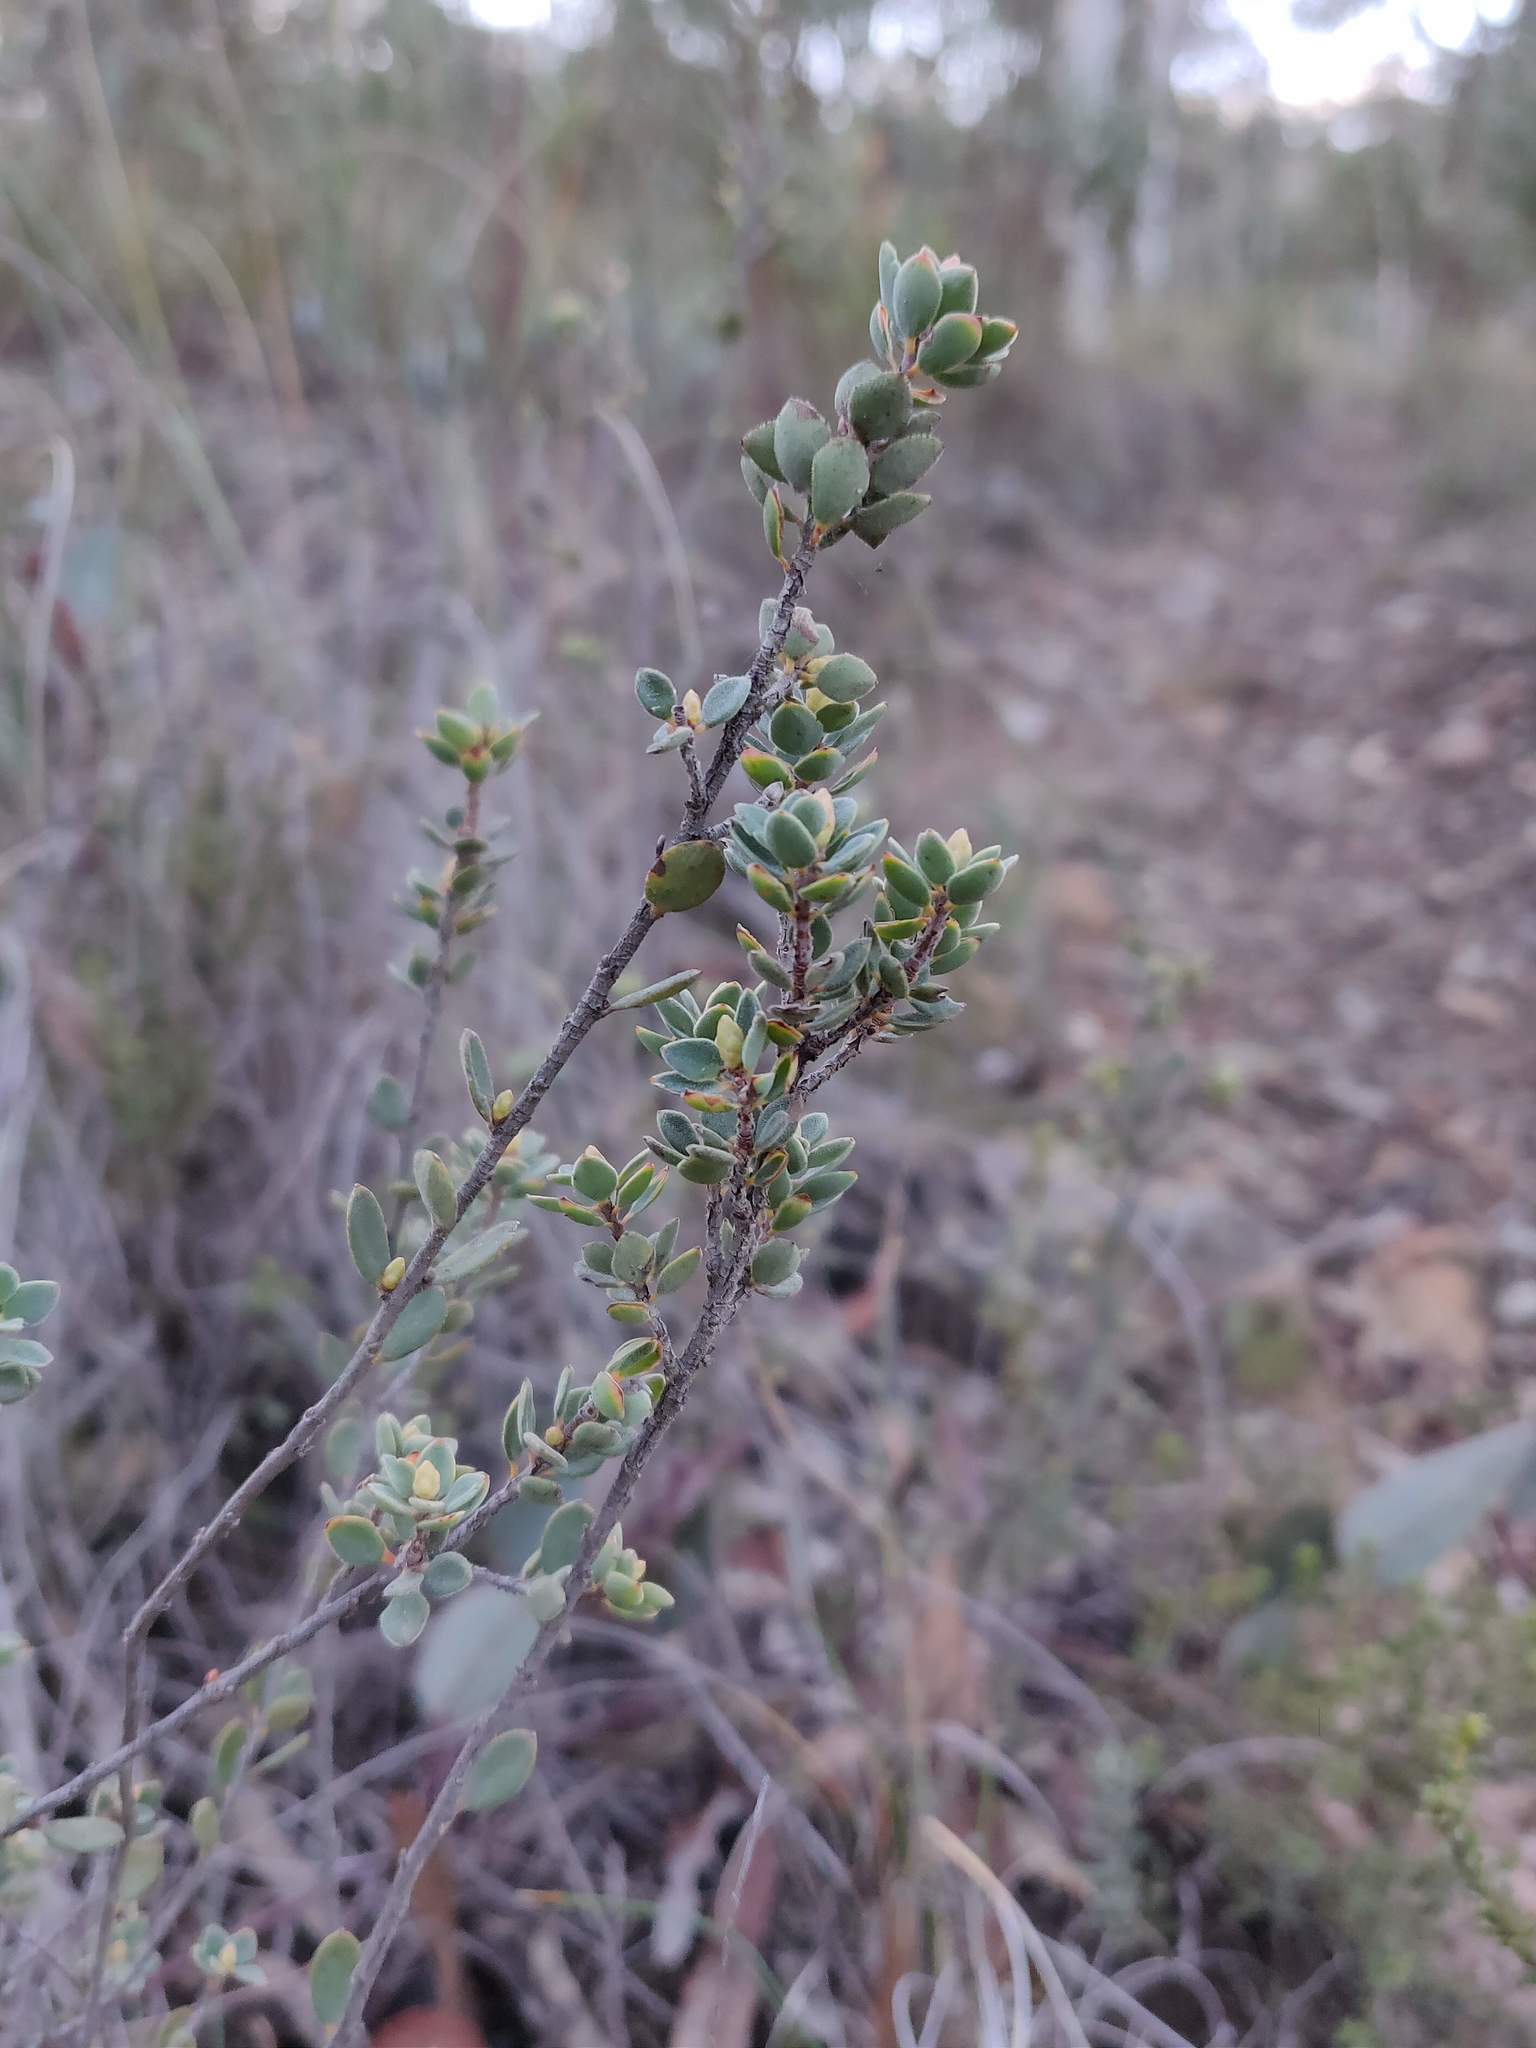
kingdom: Plantae
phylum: Tracheophyta
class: Magnoliopsida
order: Ericales
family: Ericaceae
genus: Brachyloma
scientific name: Brachyloma daphnoides
